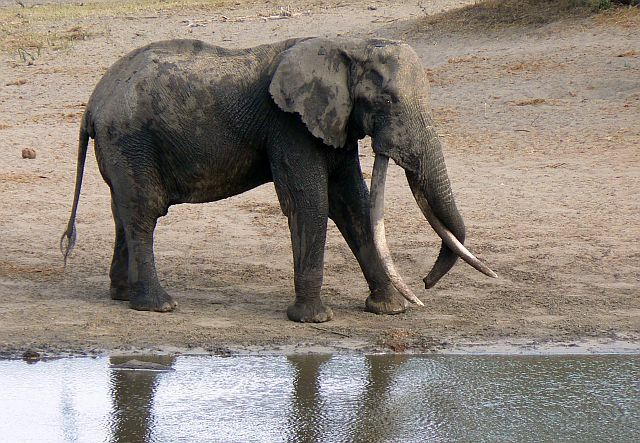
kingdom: Animalia
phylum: Chordata
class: Mammalia
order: Proboscidea
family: Elephantidae
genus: Loxodonta
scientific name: Loxodonta africana
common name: African elephant
